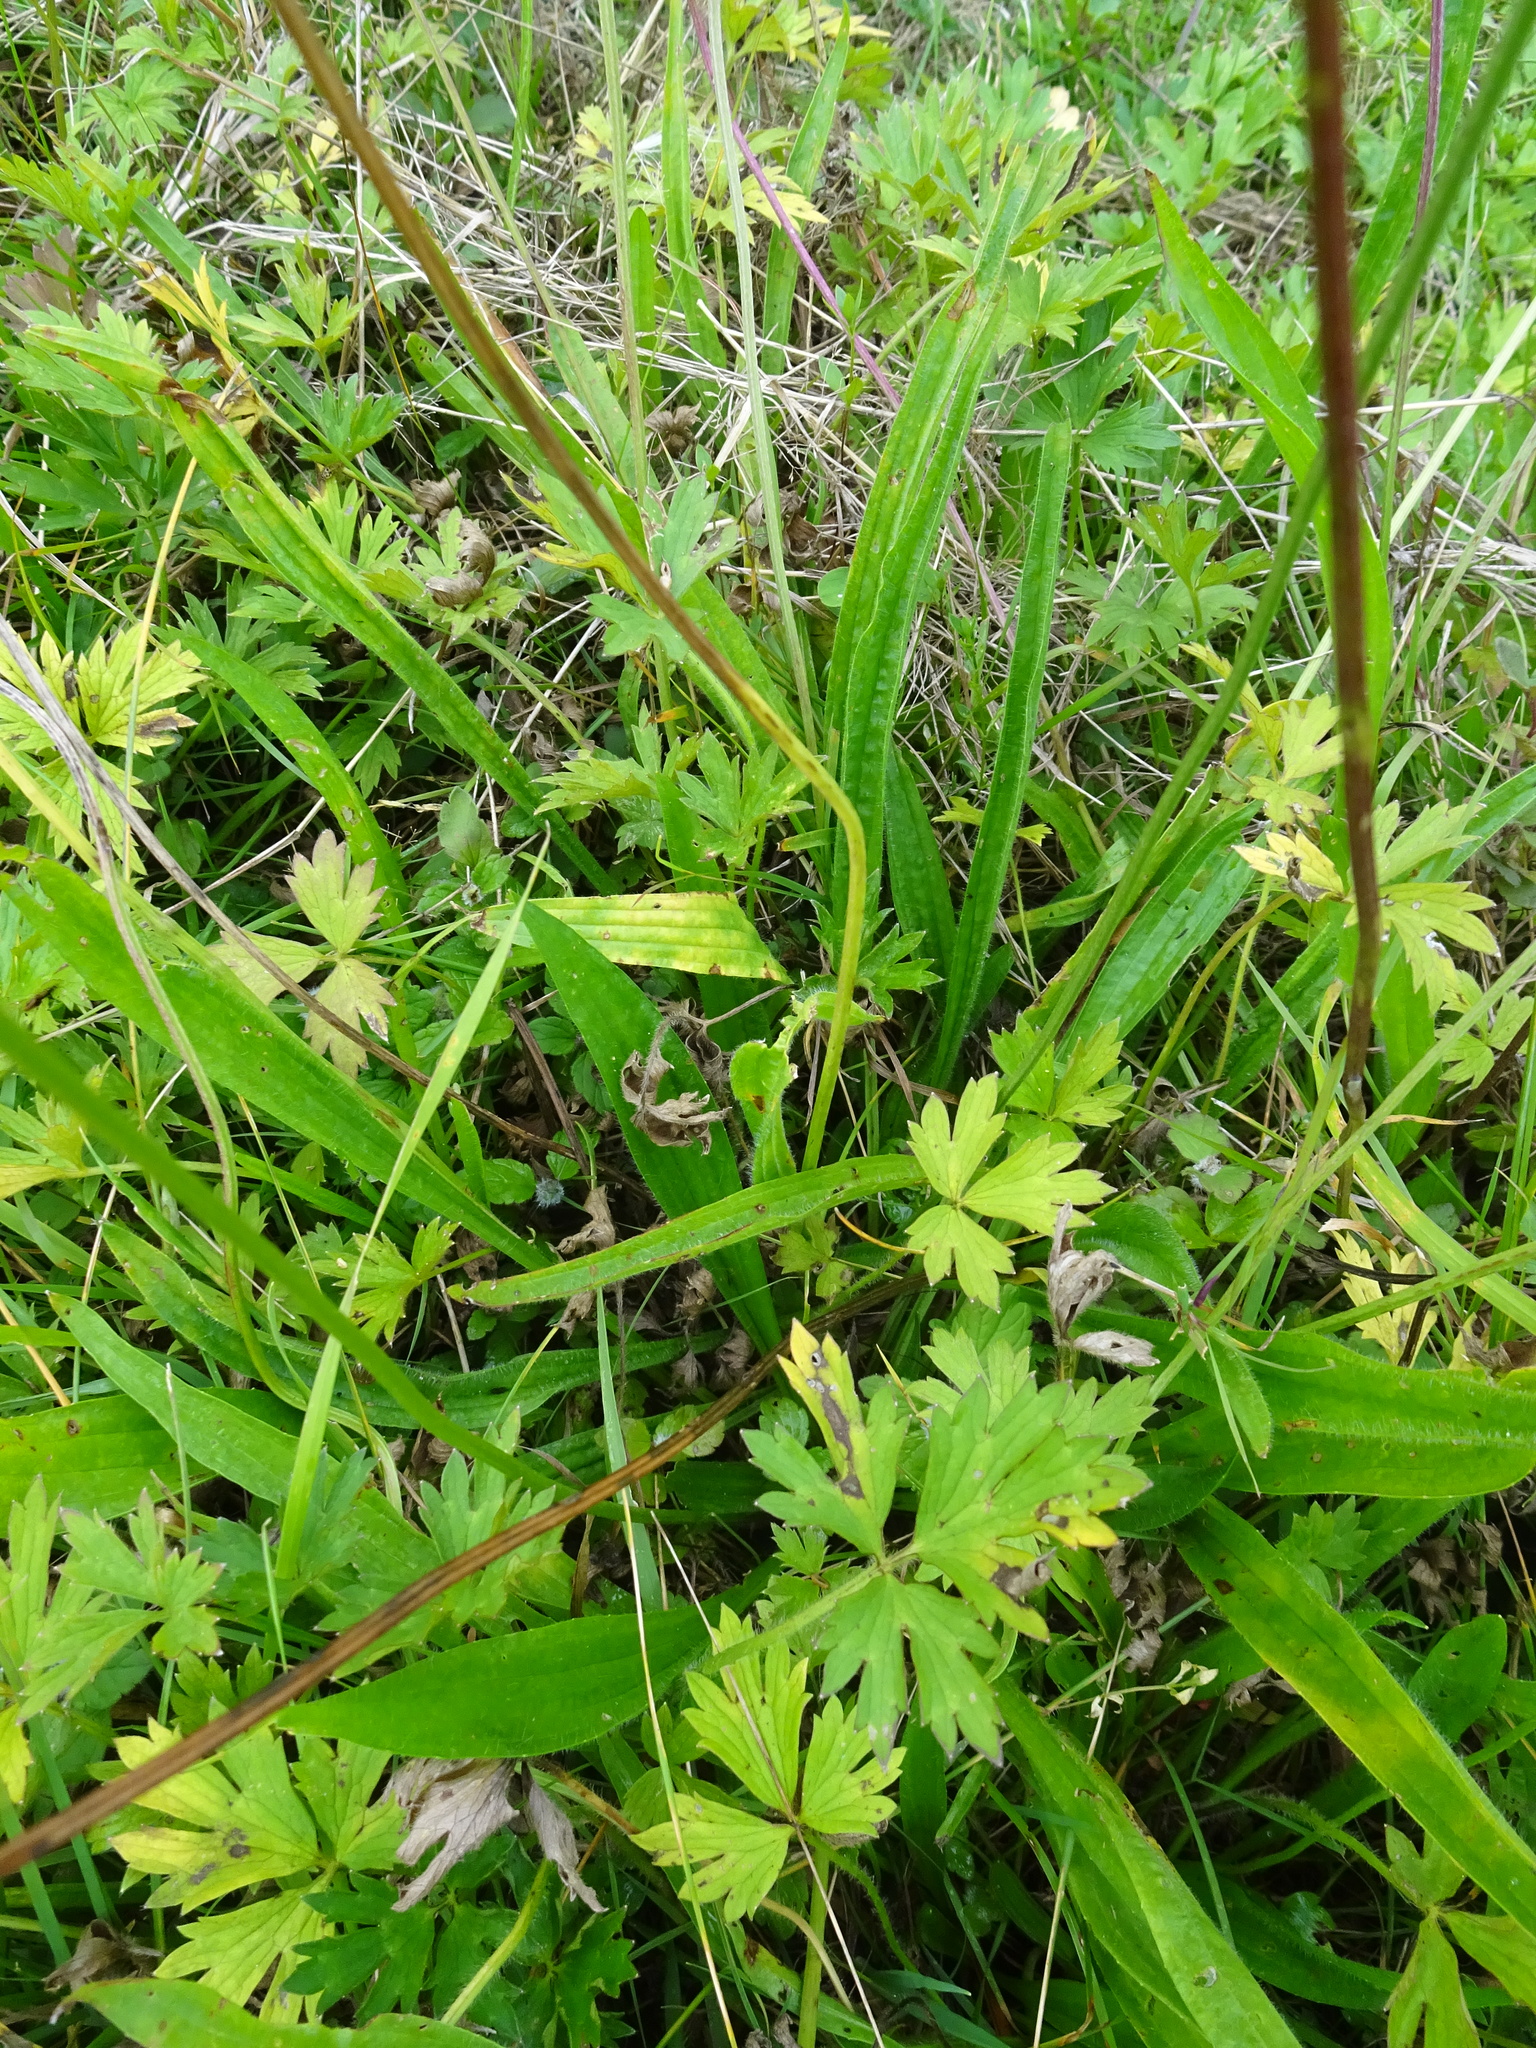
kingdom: Plantae
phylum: Tracheophyta
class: Magnoliopsida
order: Lamiales
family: Plantaginaceae
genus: Plantago
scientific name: Plantago lanceolata
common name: Ribwort plantain
